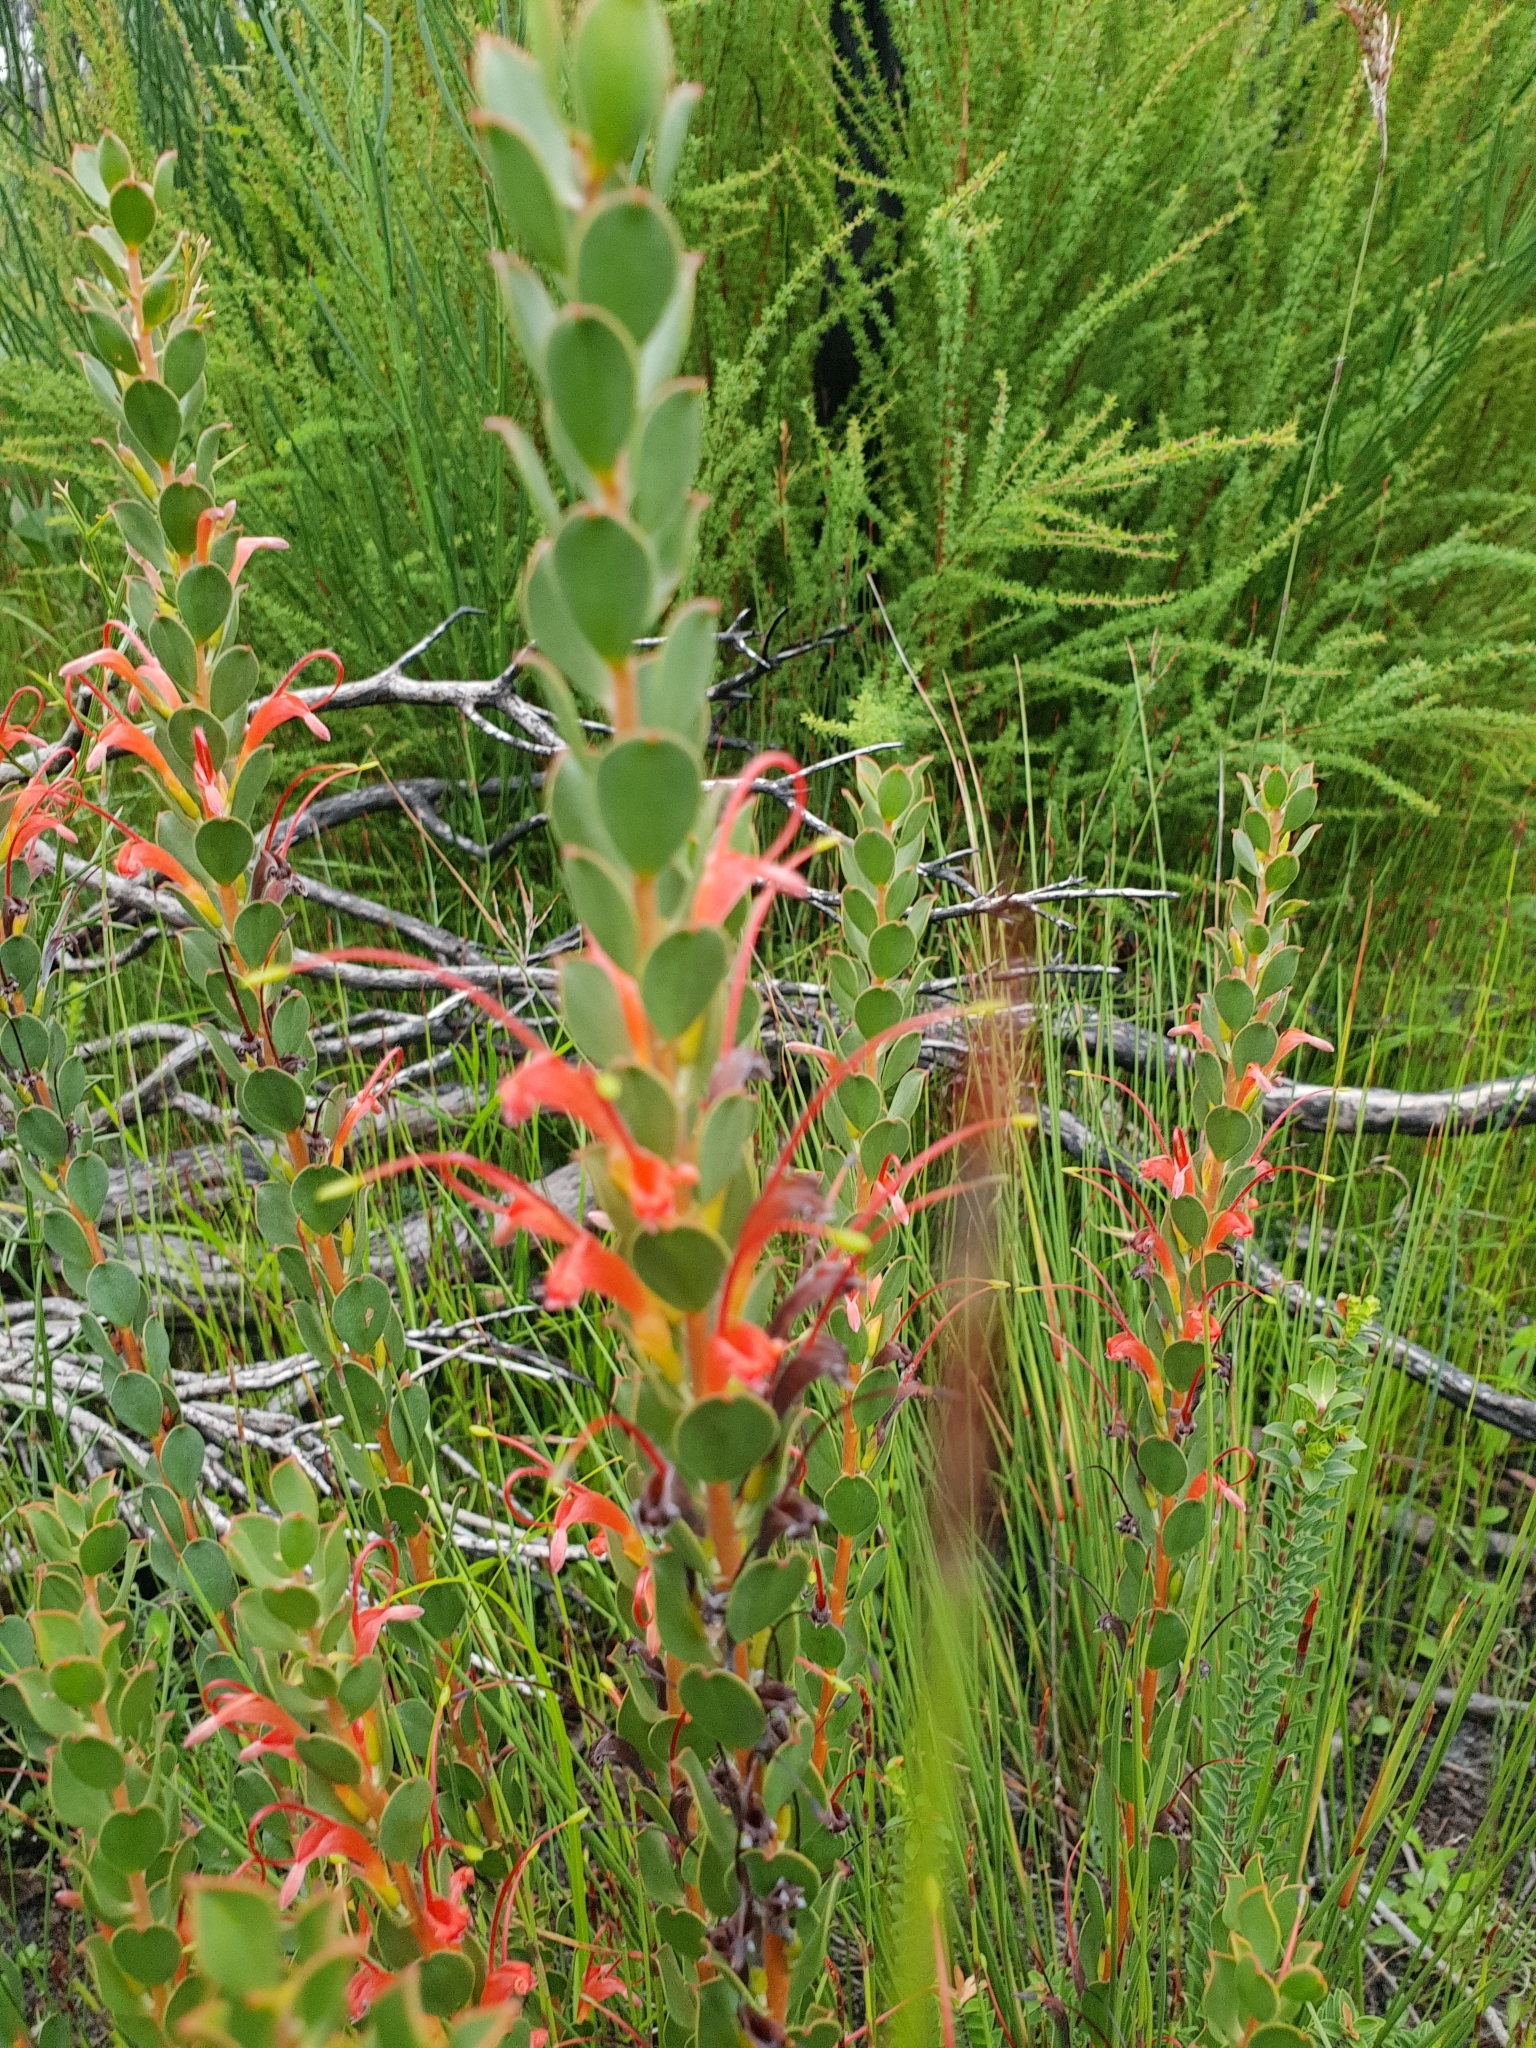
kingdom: Plantae
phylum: Tracheophyta
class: Magnoliopsida
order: Proteales
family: Proteaceae
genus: Adenanthos
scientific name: Adenanthos obovatus
